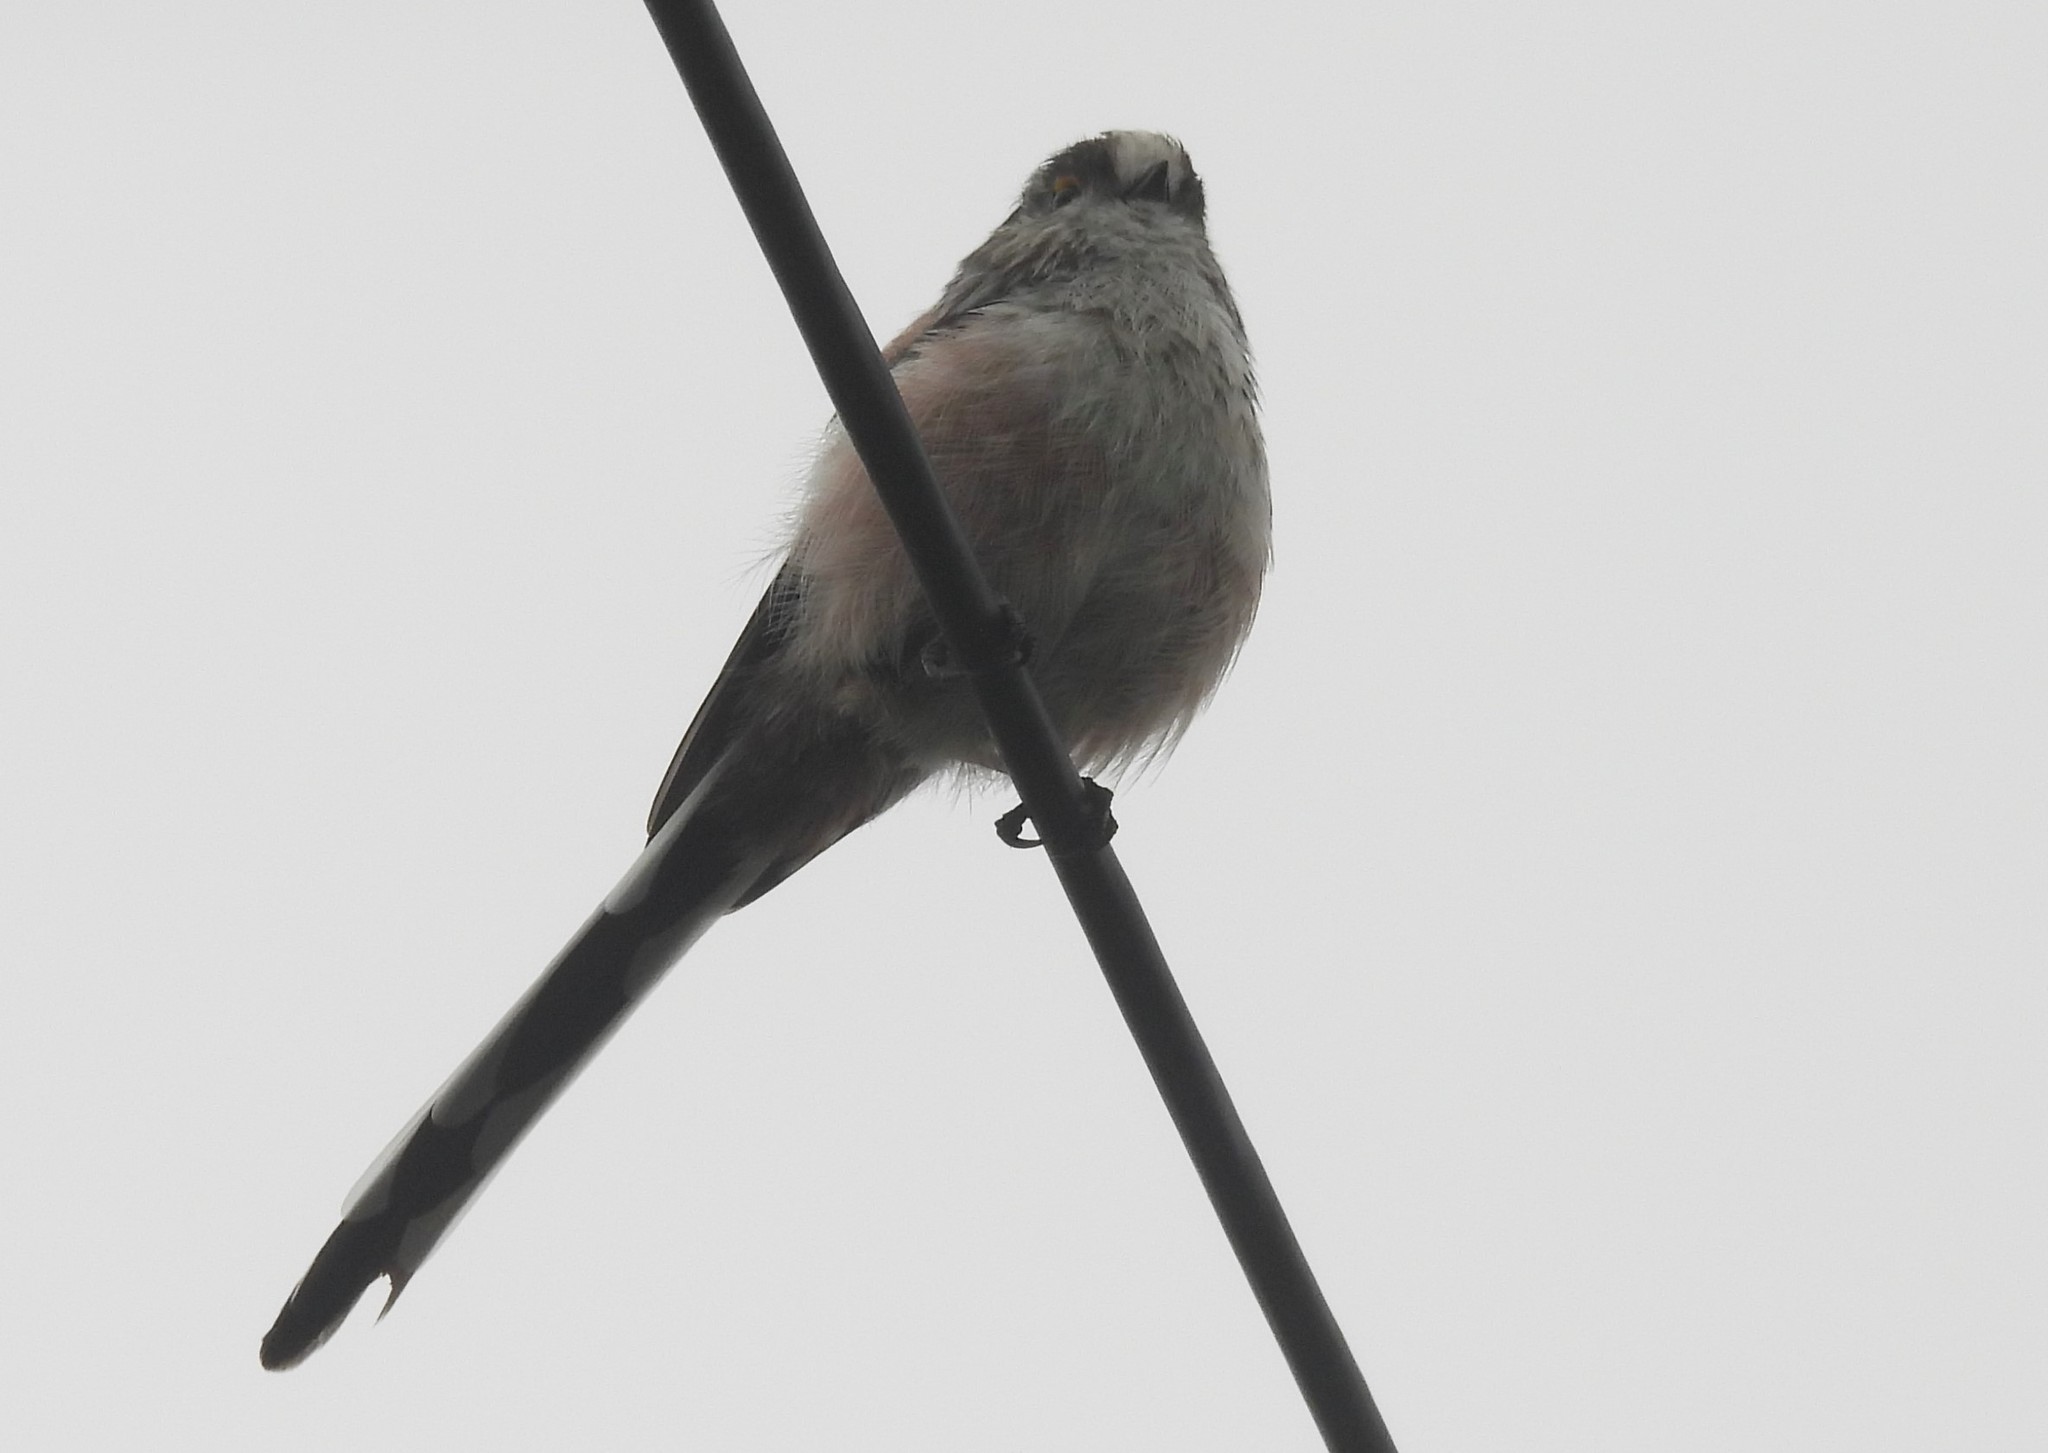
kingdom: Animalia
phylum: Chordata
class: Aves
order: Passeriformes
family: Aegithalidae
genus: Aegithalos
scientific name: Aegithalos caudatus
